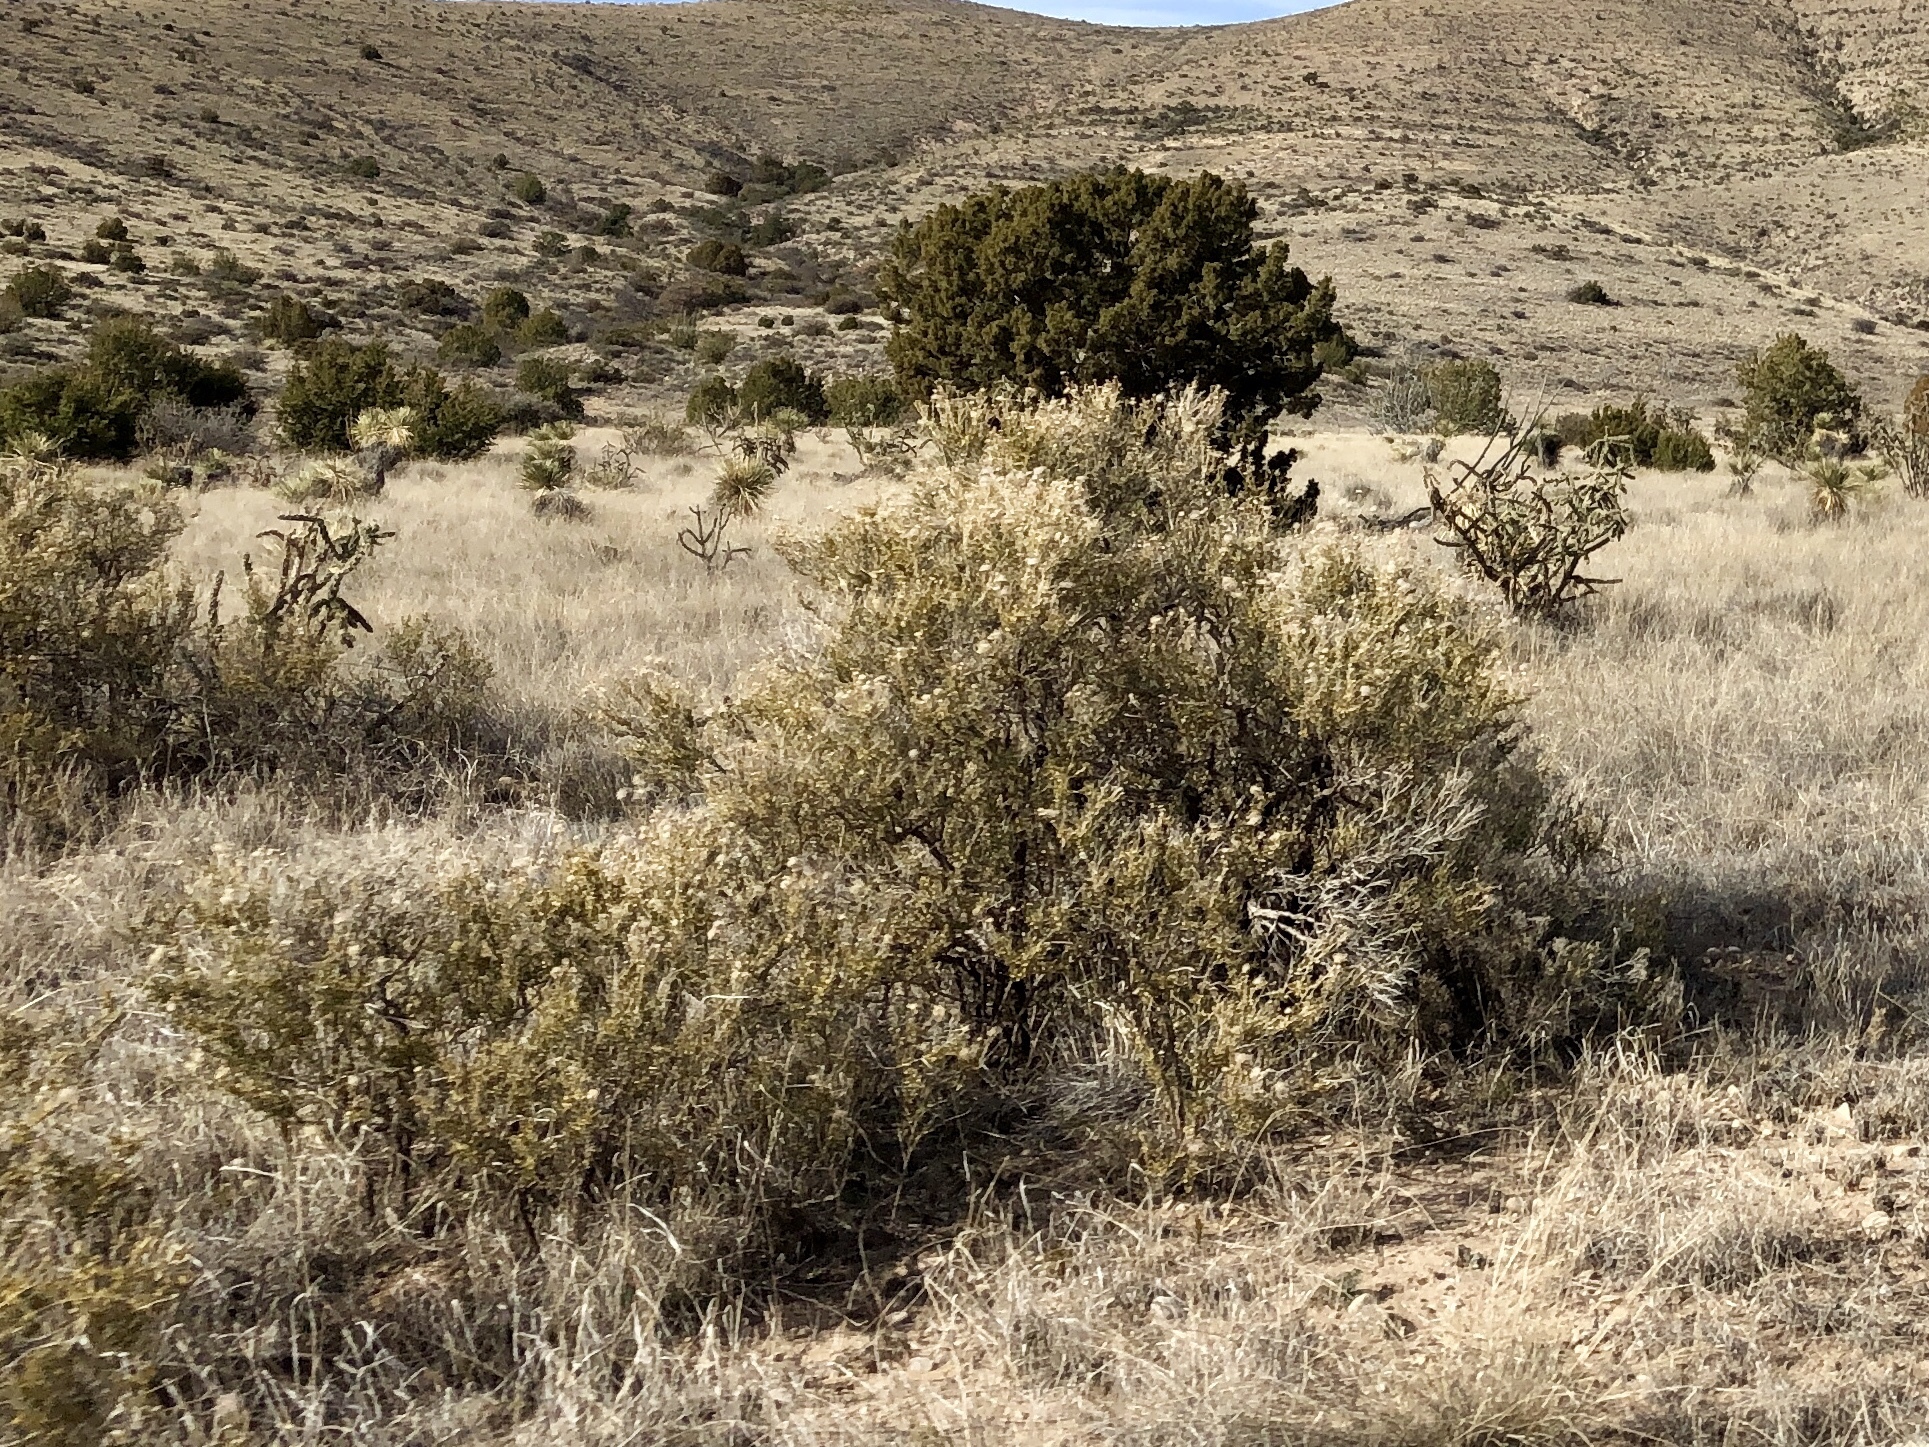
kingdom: Plantae
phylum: Tracheophyta
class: Magnoliopsida
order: Rosales
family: Rosaceae
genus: Fallugia
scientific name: Fallugia paradoxa
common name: Apache-plume
